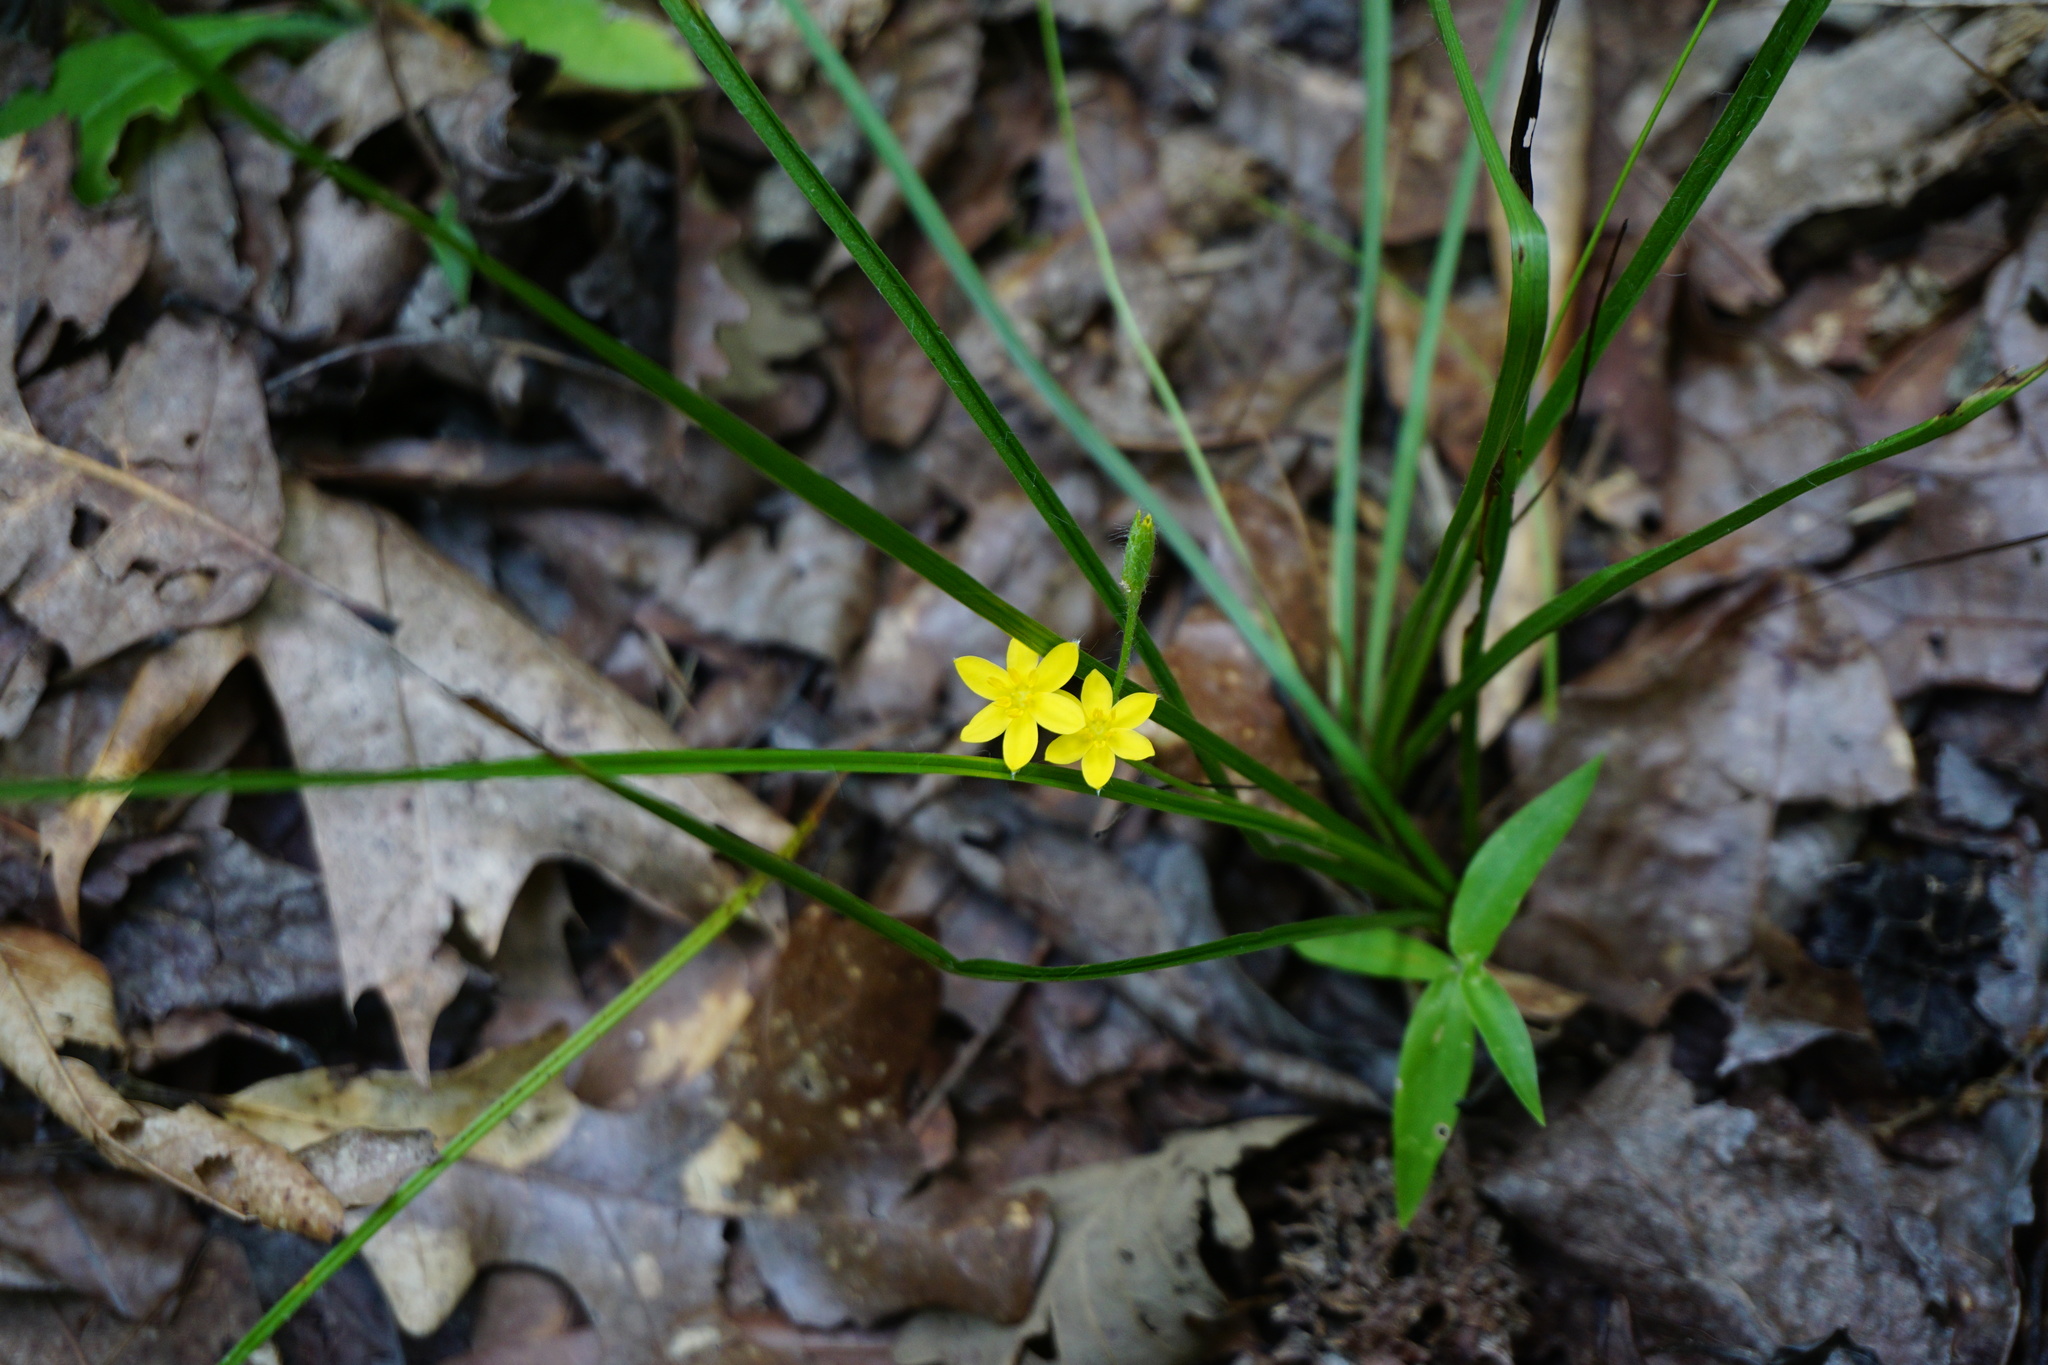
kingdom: Plantae
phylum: Tracheophyta
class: Liliopsida
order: Asparagales
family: Hypoxidaceae
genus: Hypoxis
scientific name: Hypoxis hirsuta
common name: Common goldstar
